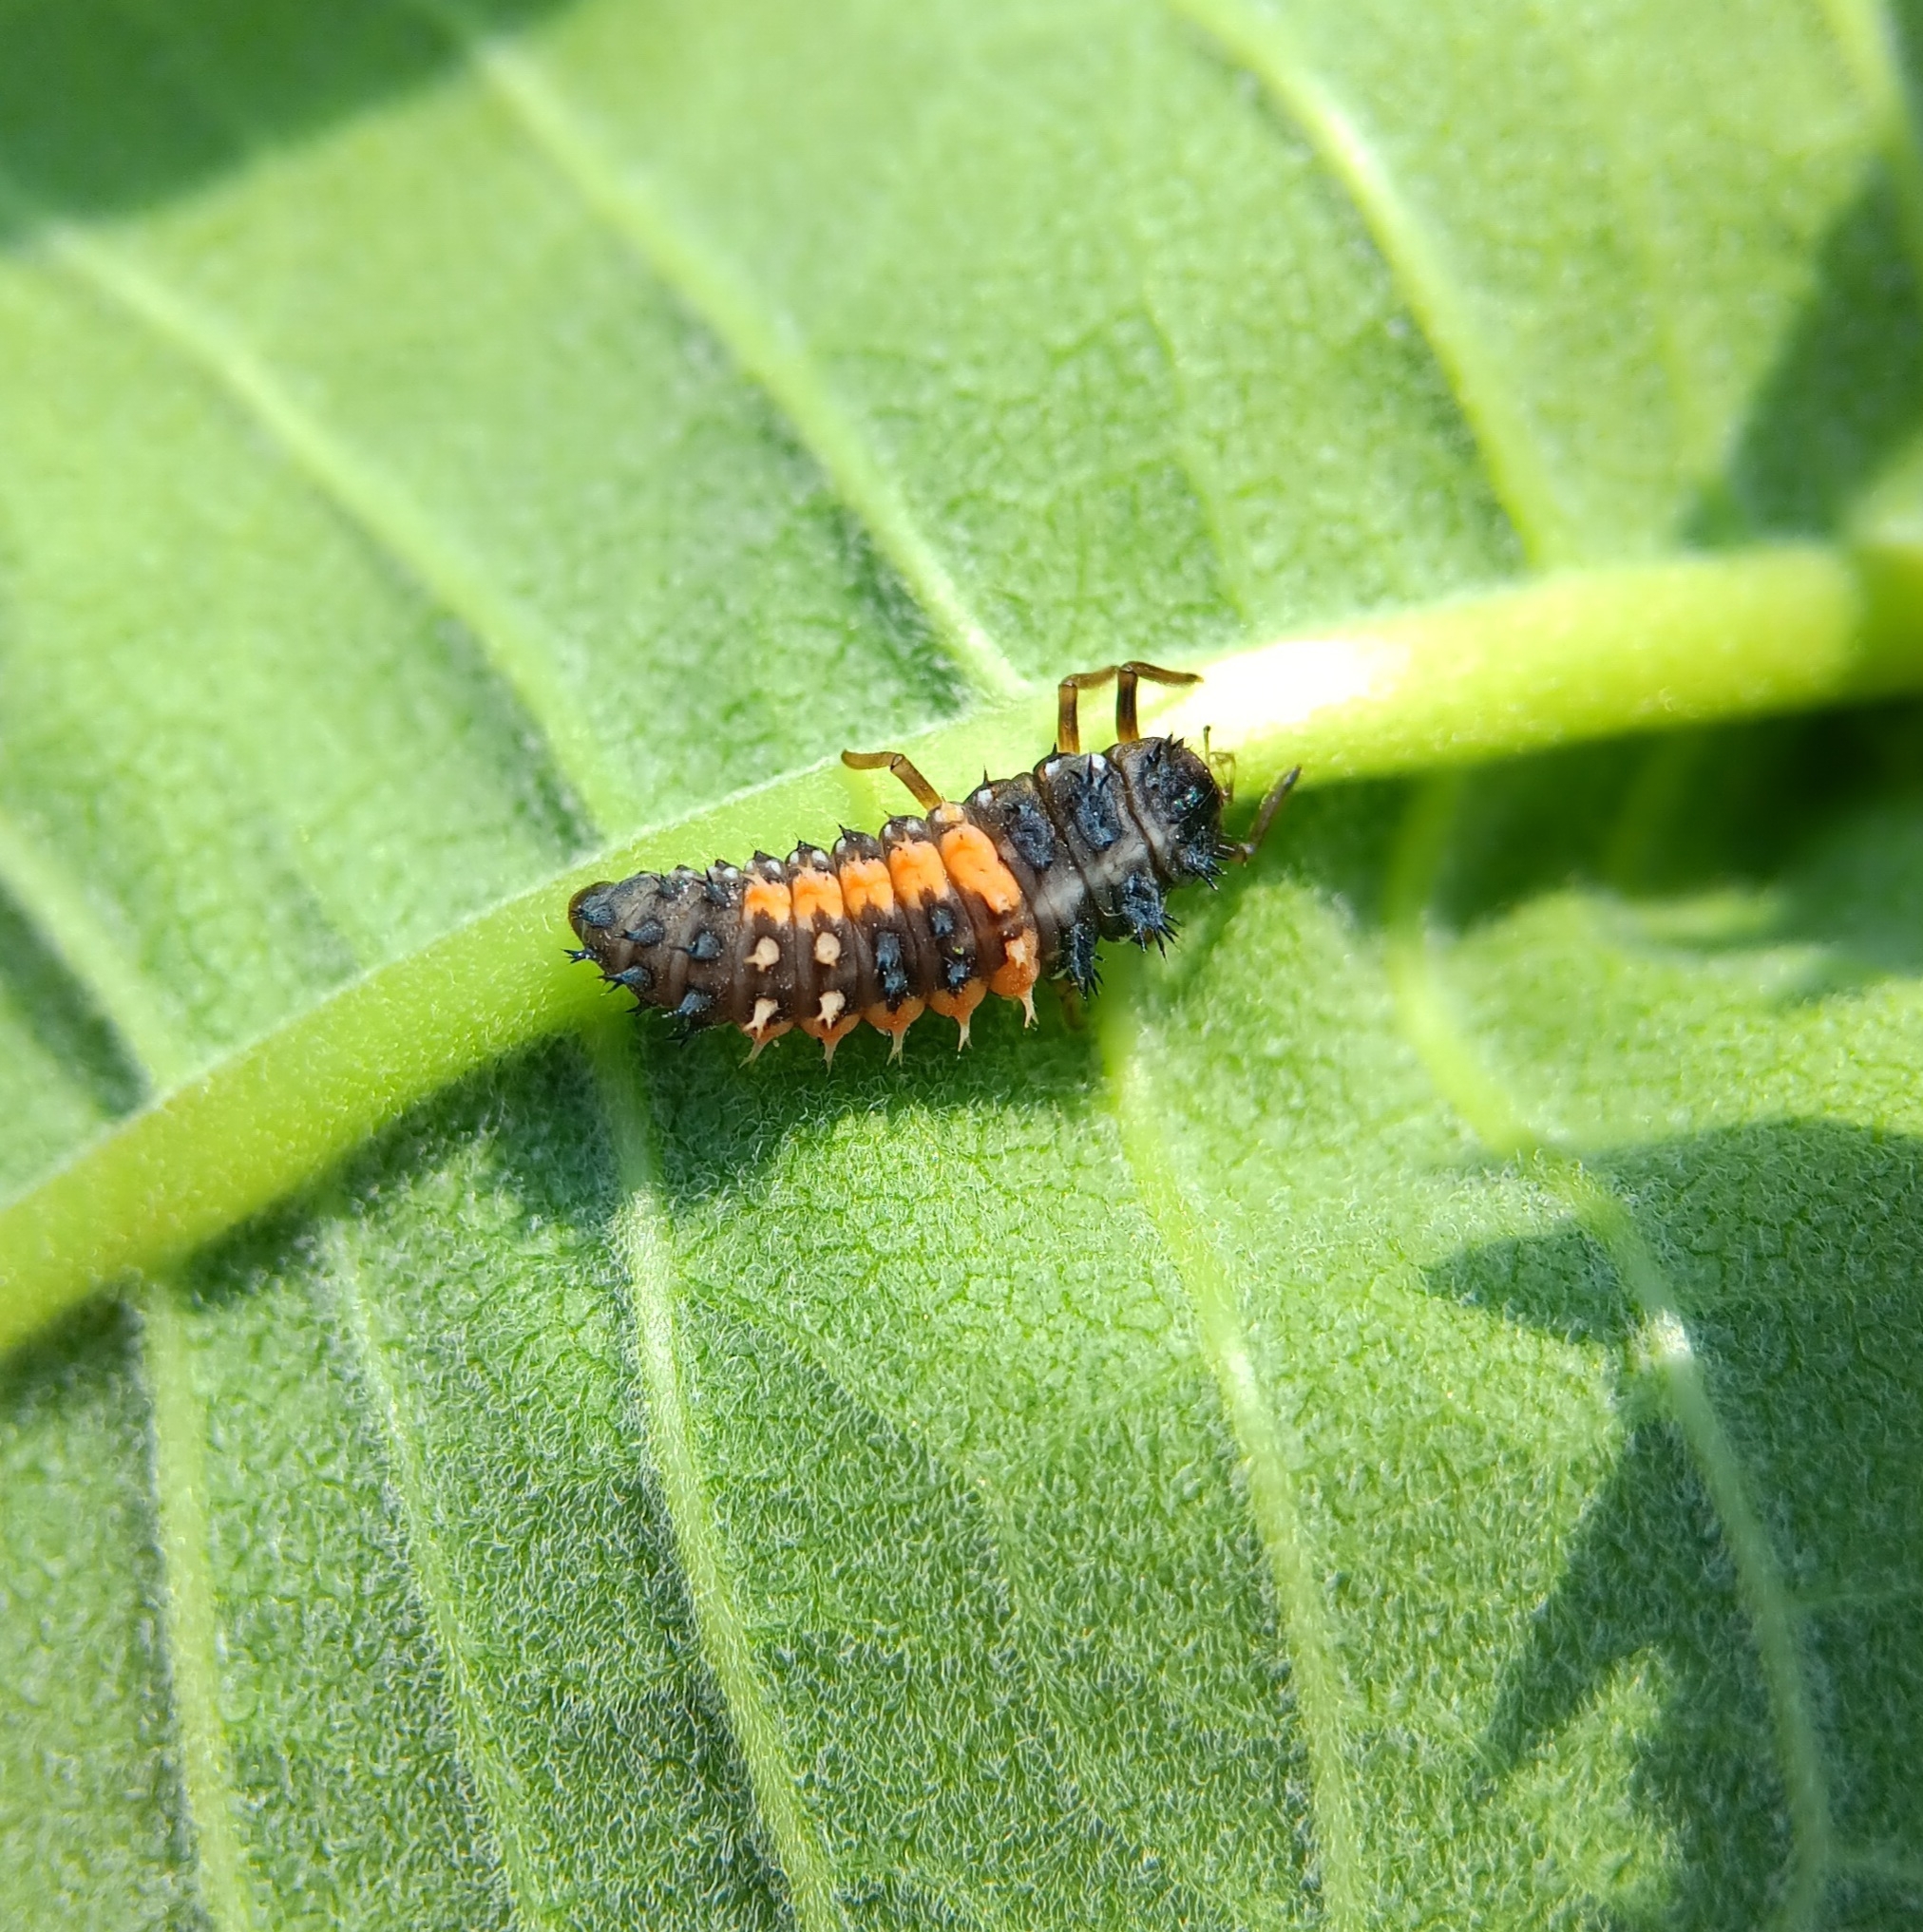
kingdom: Animalia
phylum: Arthropoda
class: Insecta
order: Coleoptera
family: Coccinellidae
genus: Harmonia
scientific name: Harmonia axyridis
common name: Harlequin ladybird
